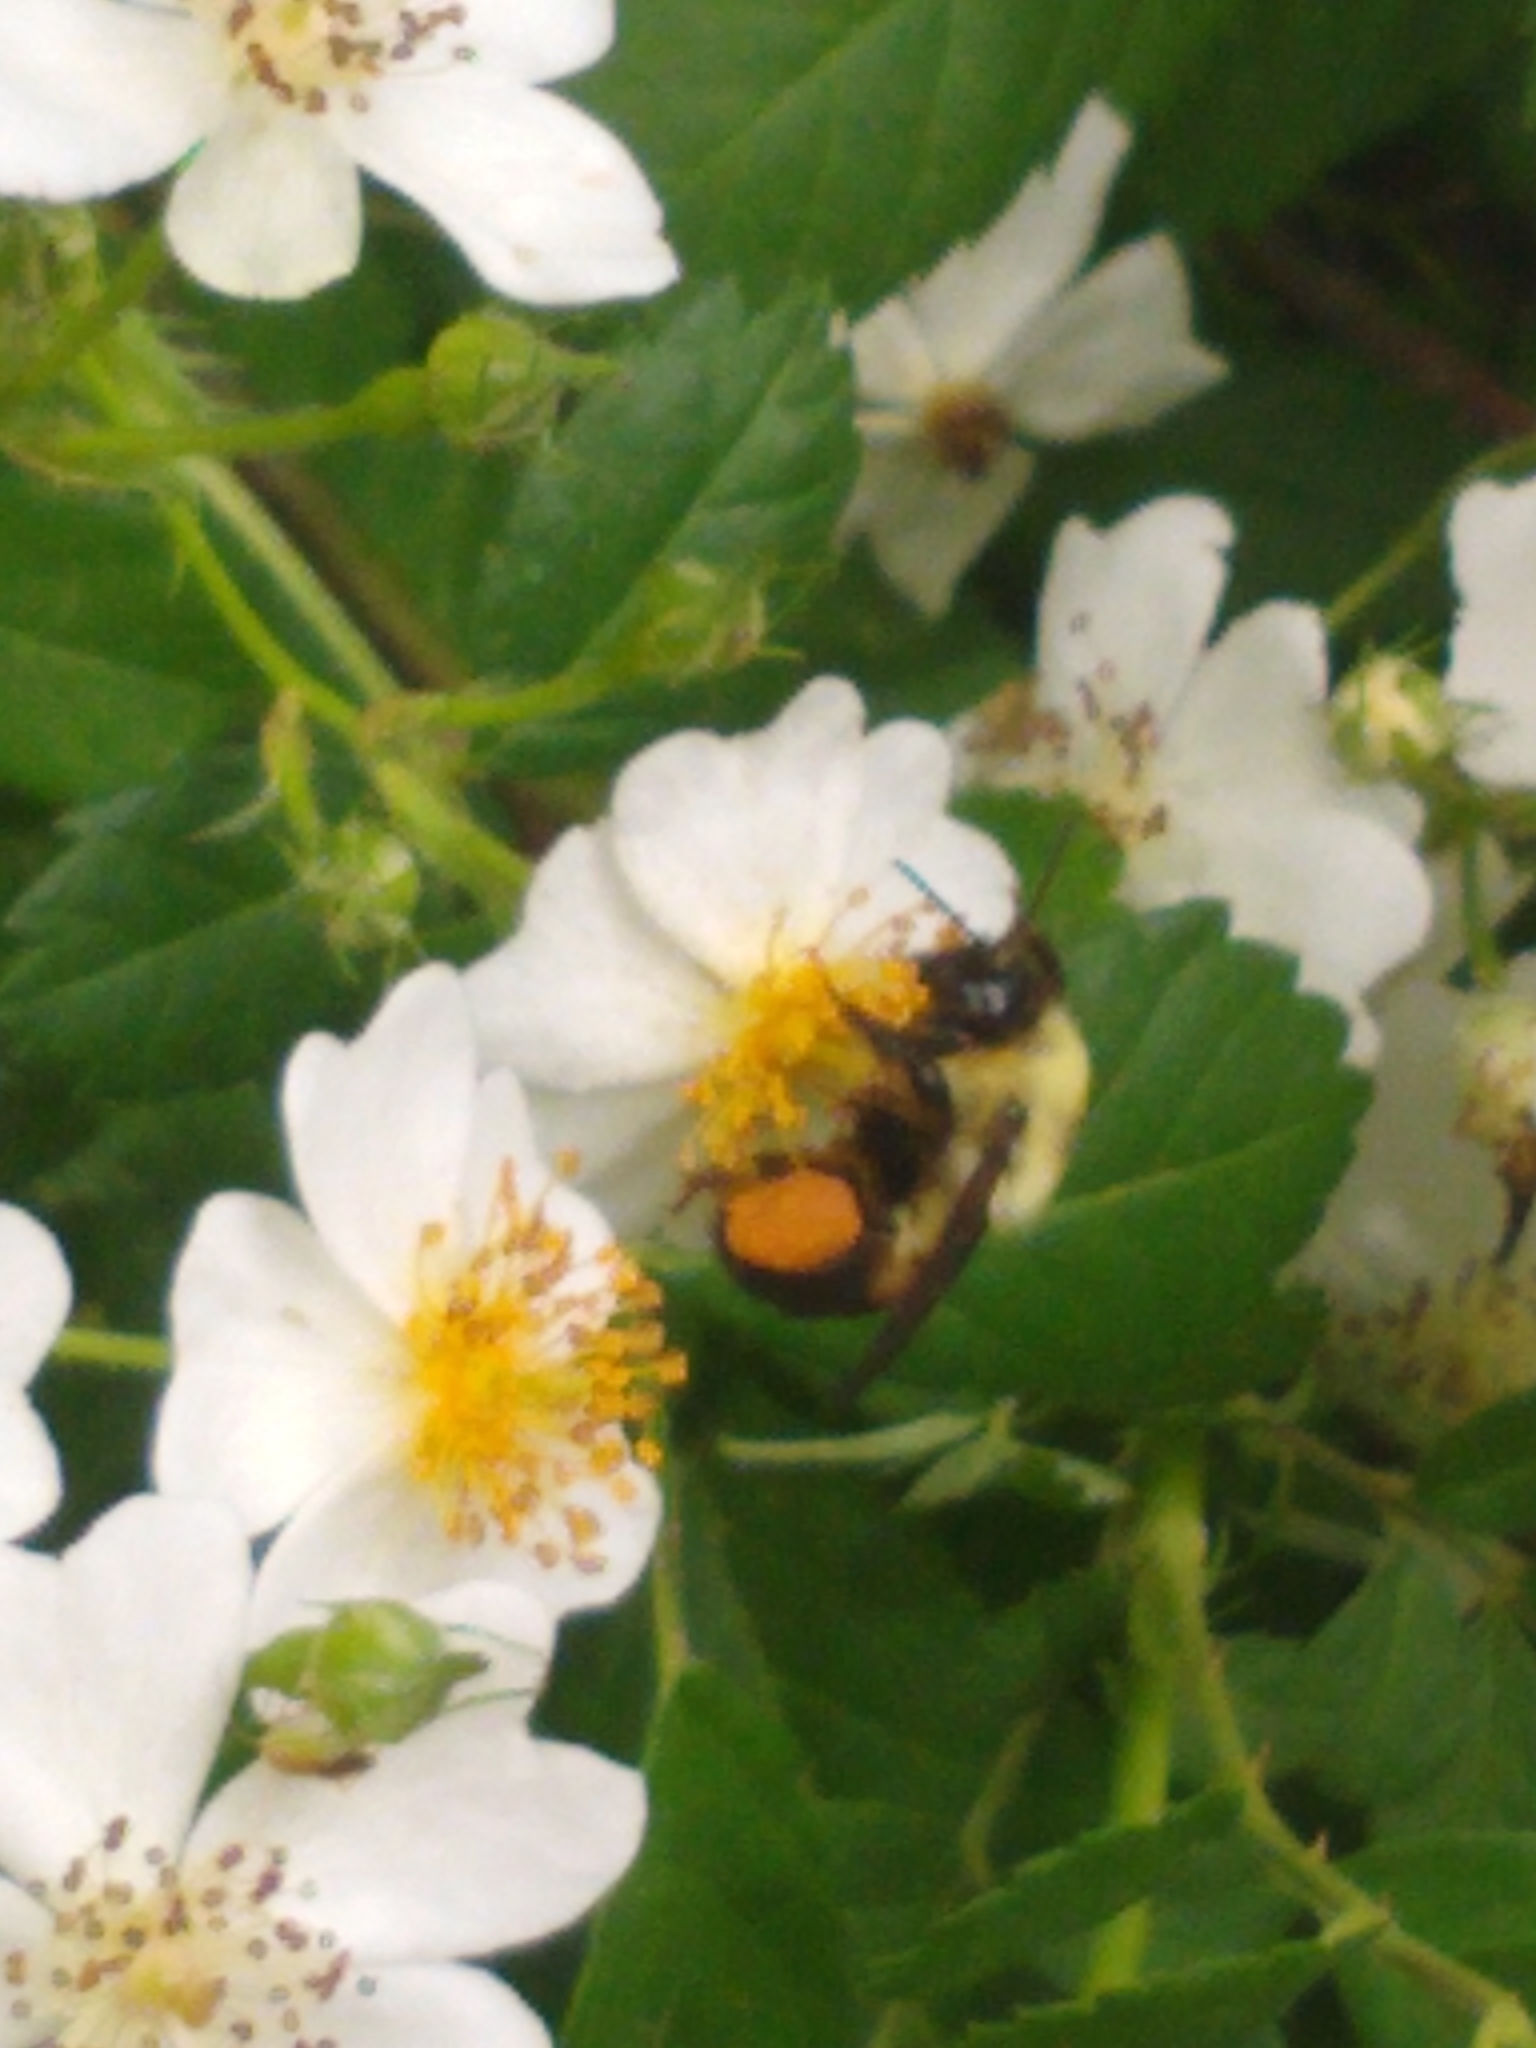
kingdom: Animalia
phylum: Arthropoda
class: Insecta
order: Hymenoptera
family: Apidae
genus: Bombus
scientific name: Bombus griseocollis
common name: Brown-belted bumble bee
